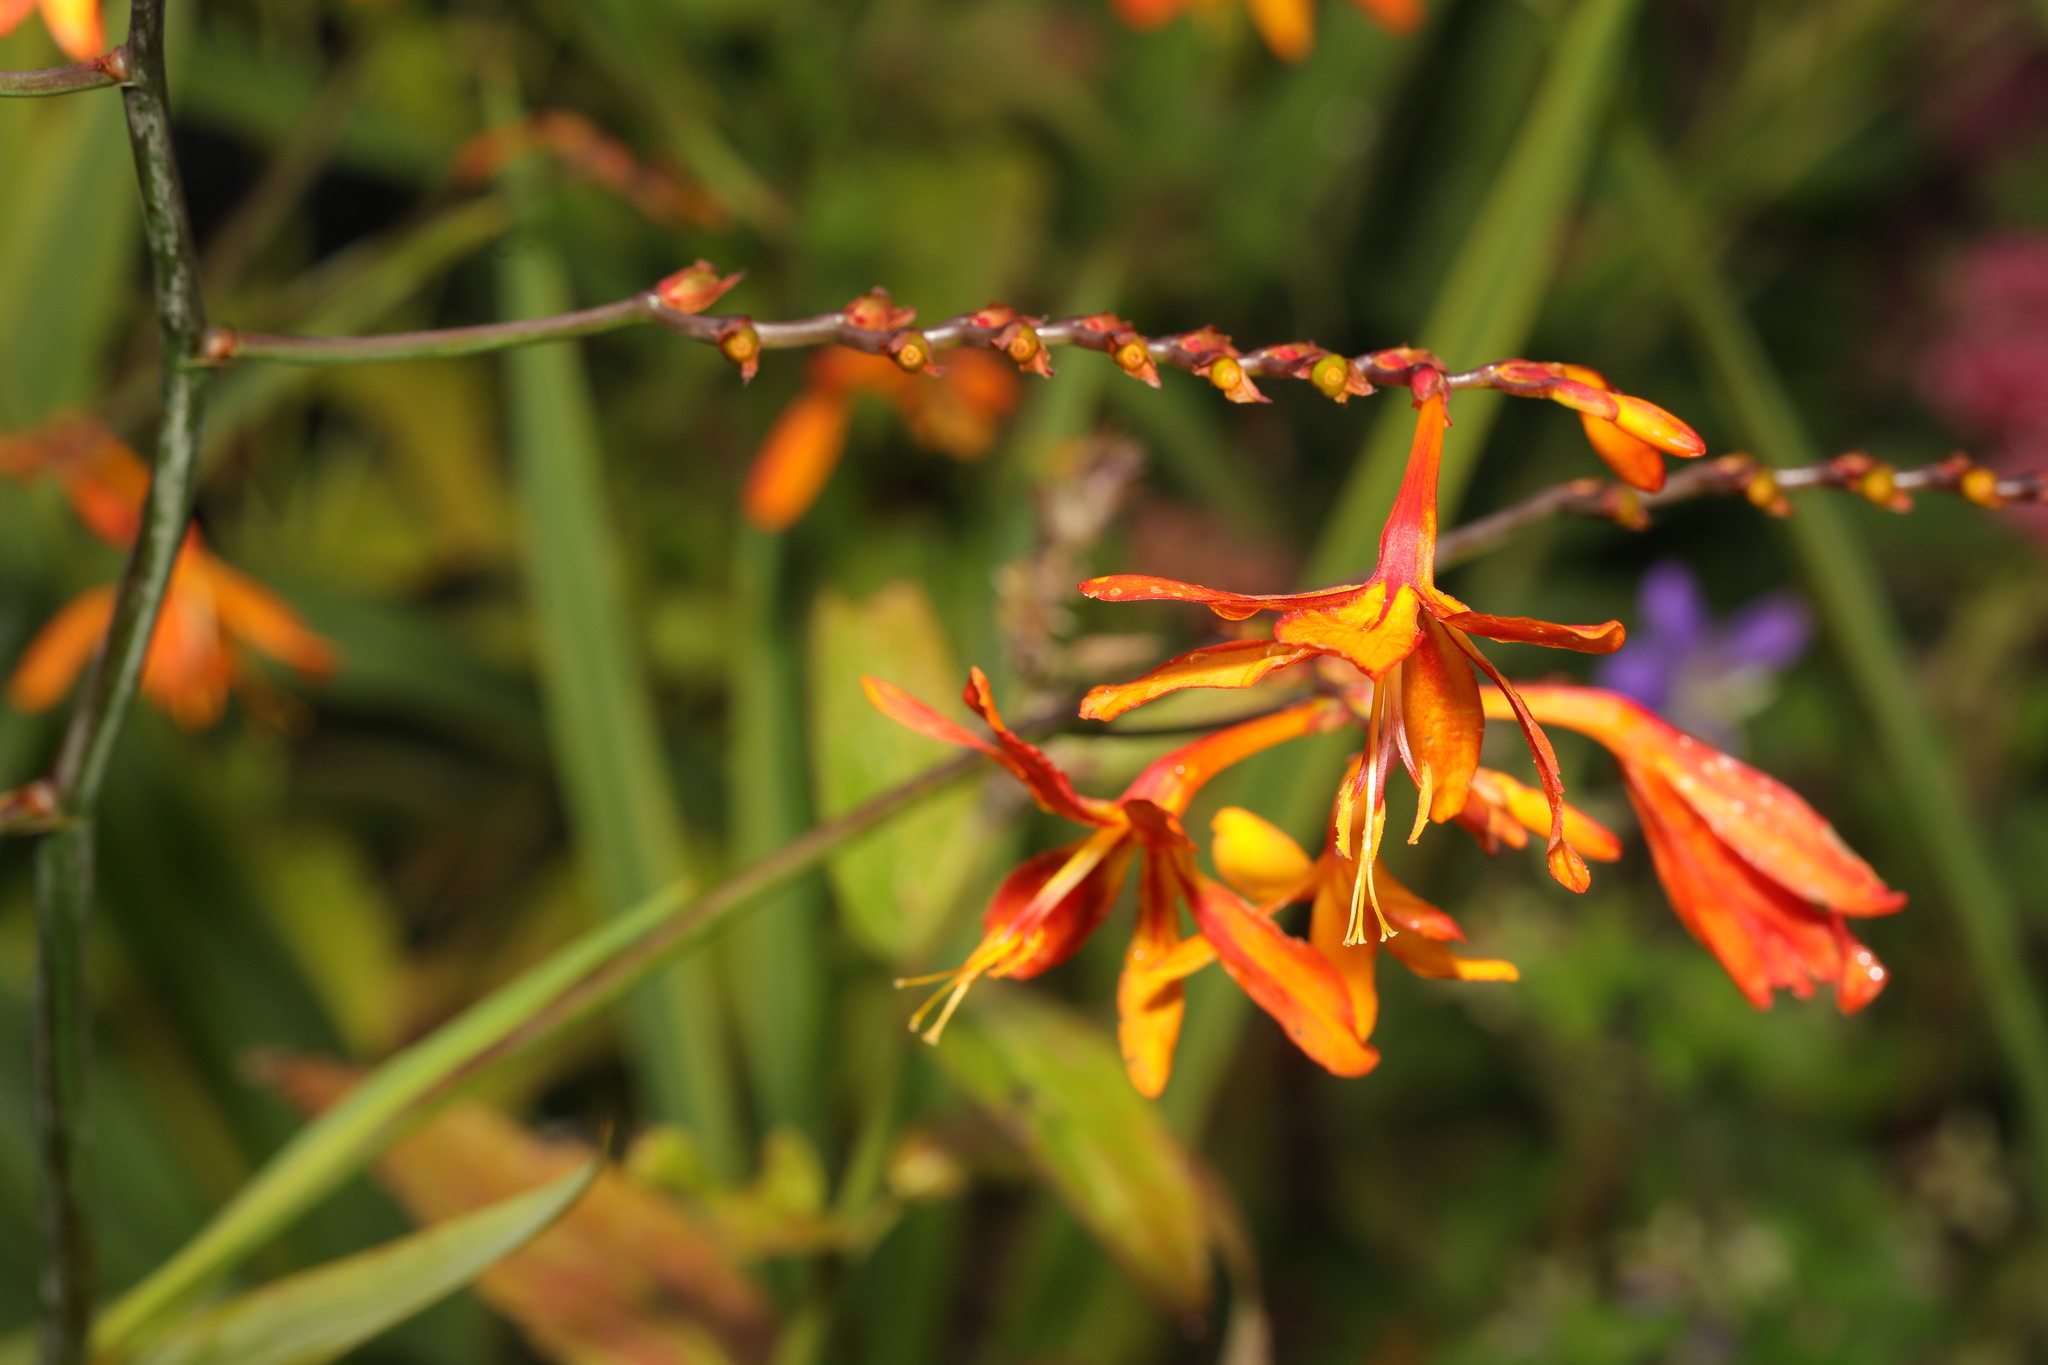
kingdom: Plantae
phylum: Tracheophyta
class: Liliopsida
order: Asparagales
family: Iridaceae
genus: Crocosmia
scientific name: Crocosmia crocosmiiflora
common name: Montbretia
